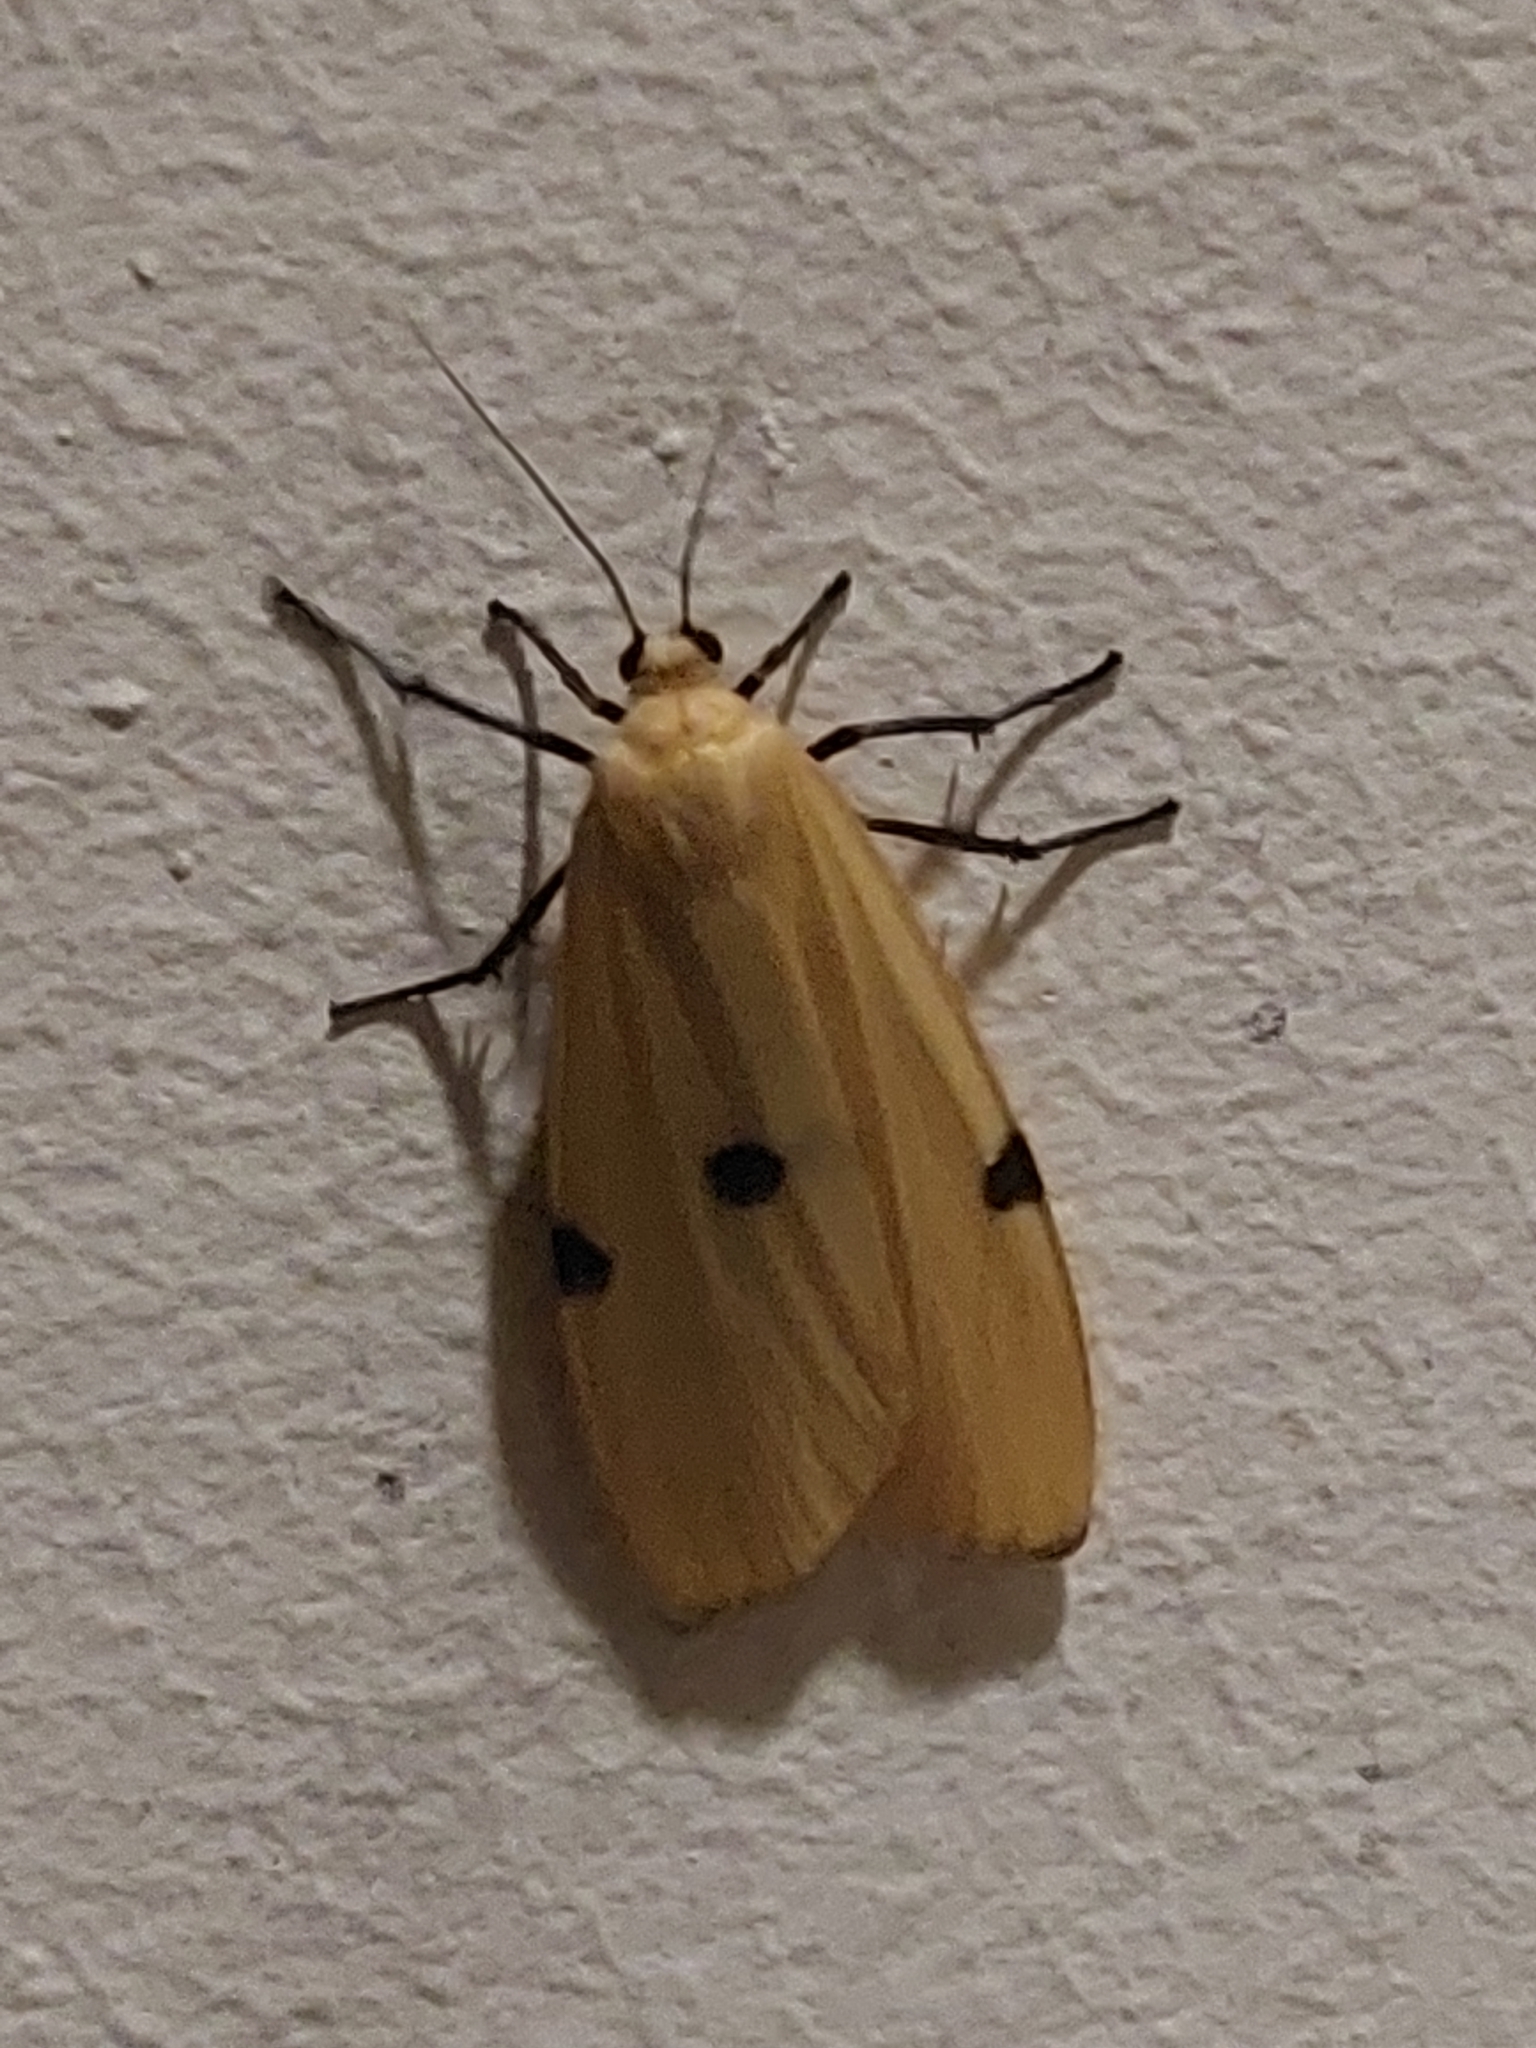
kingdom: Animalia
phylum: Arthropoda
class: Insecta
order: Lepidoptera
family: Erebidae
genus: Lithosia
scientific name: Lithosia quadra
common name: Four-spotted footman
